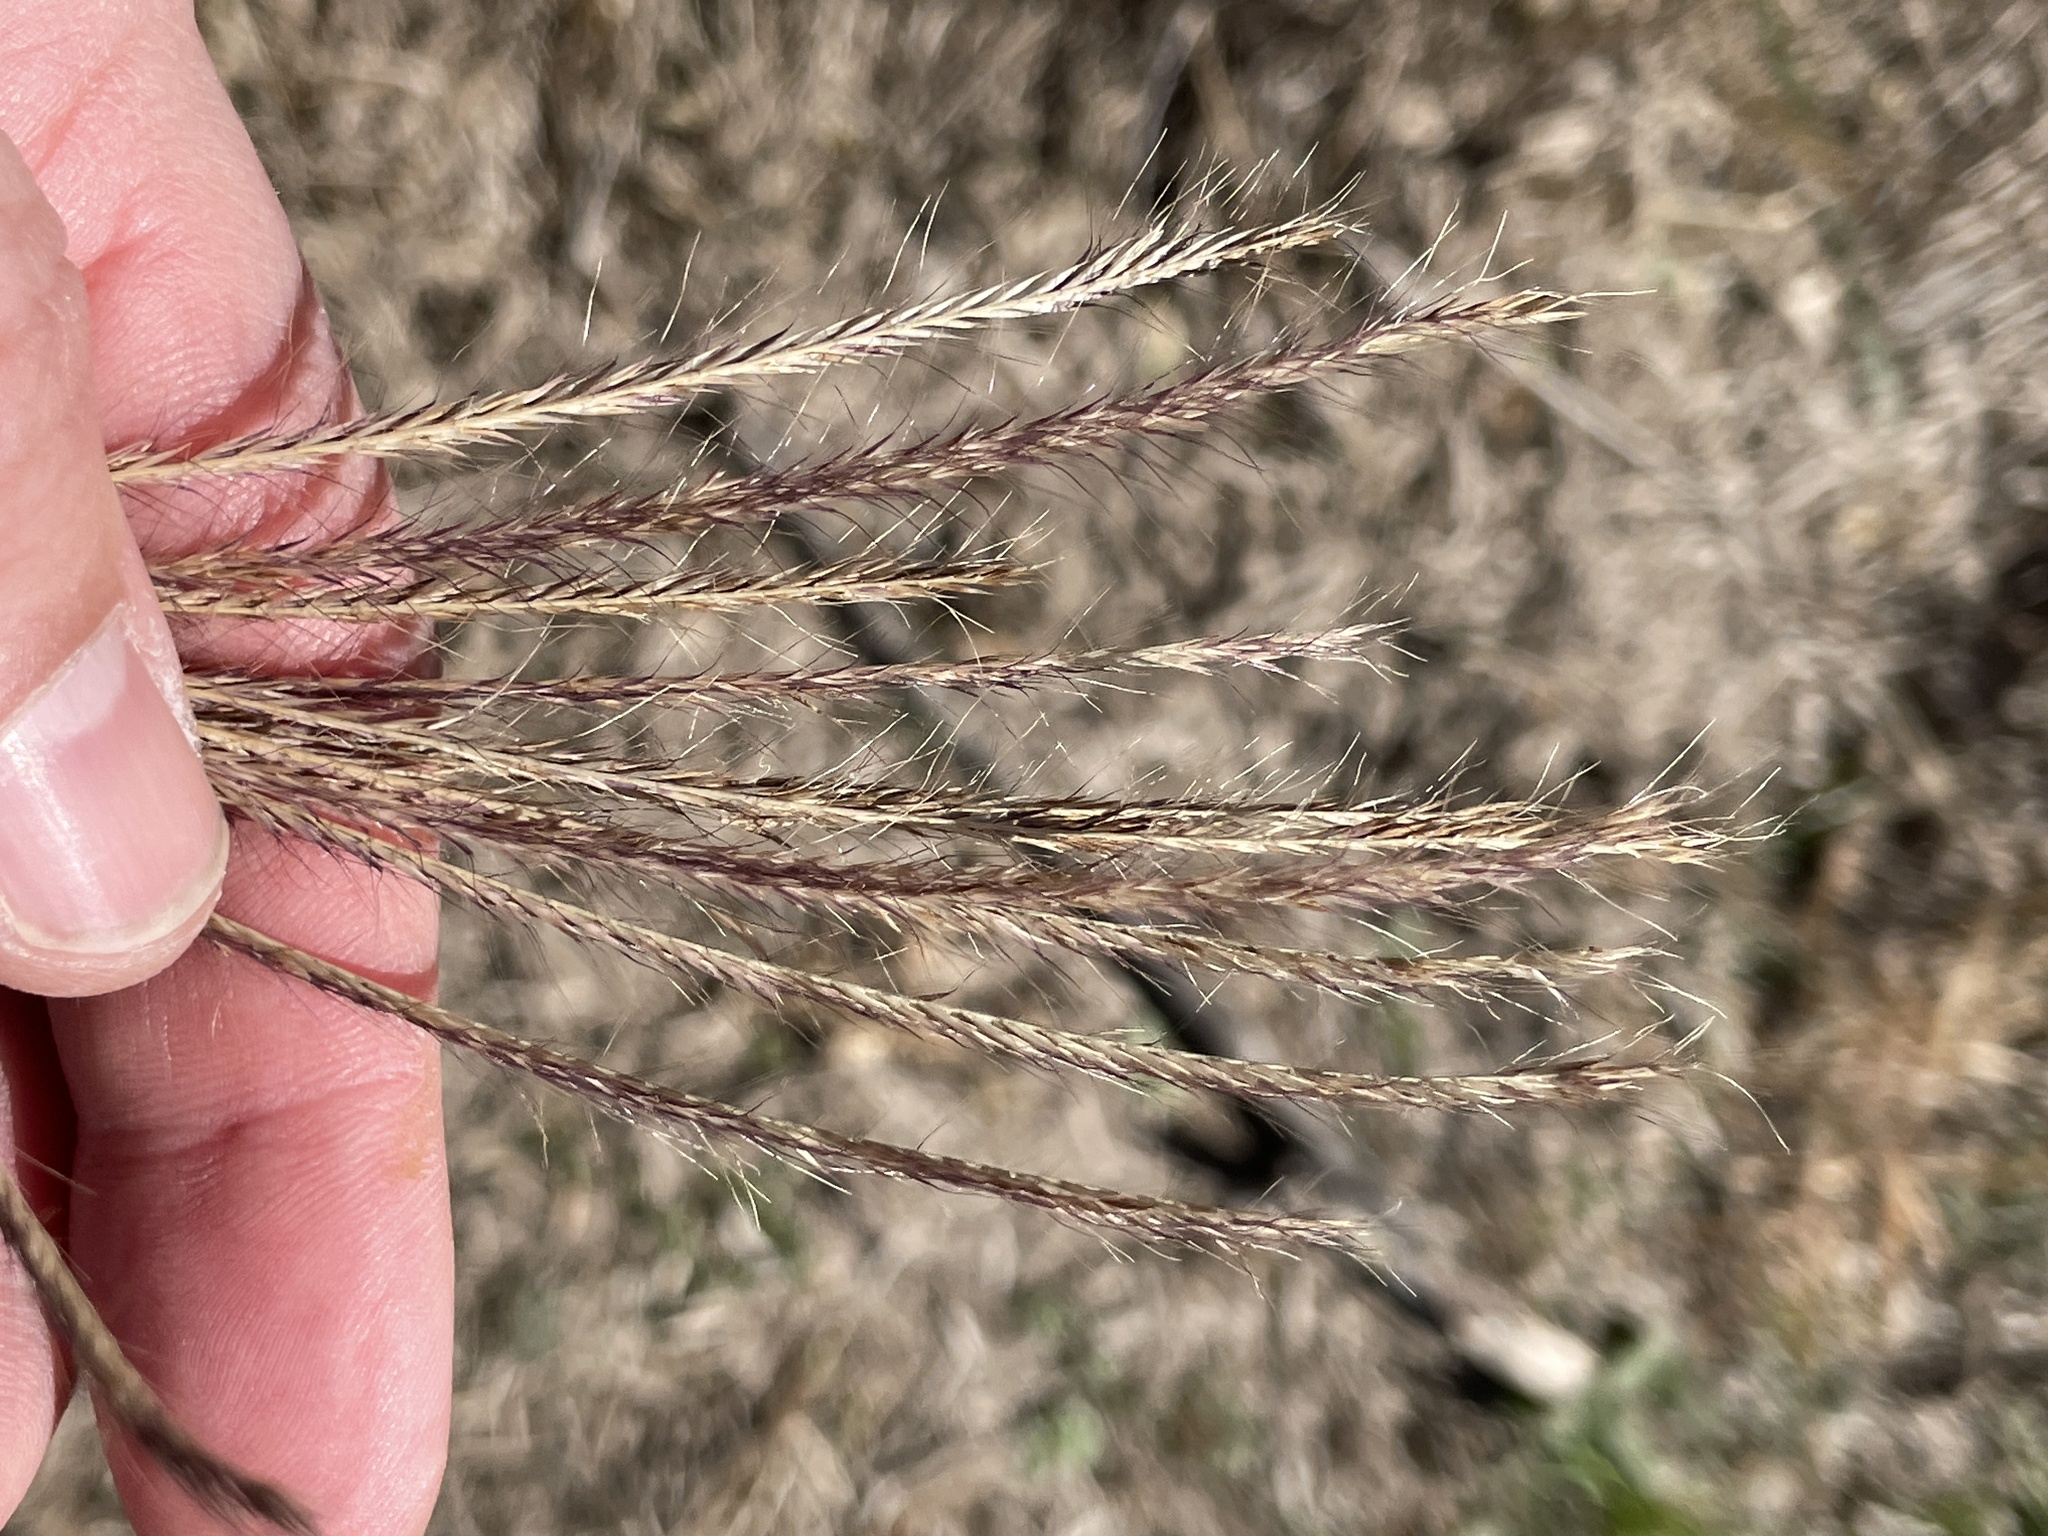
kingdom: Plantae
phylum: Tracheophyta
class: Liliopsida
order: Poales
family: Poaceae
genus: Leptochloa
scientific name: Leptochloa pluriflora
